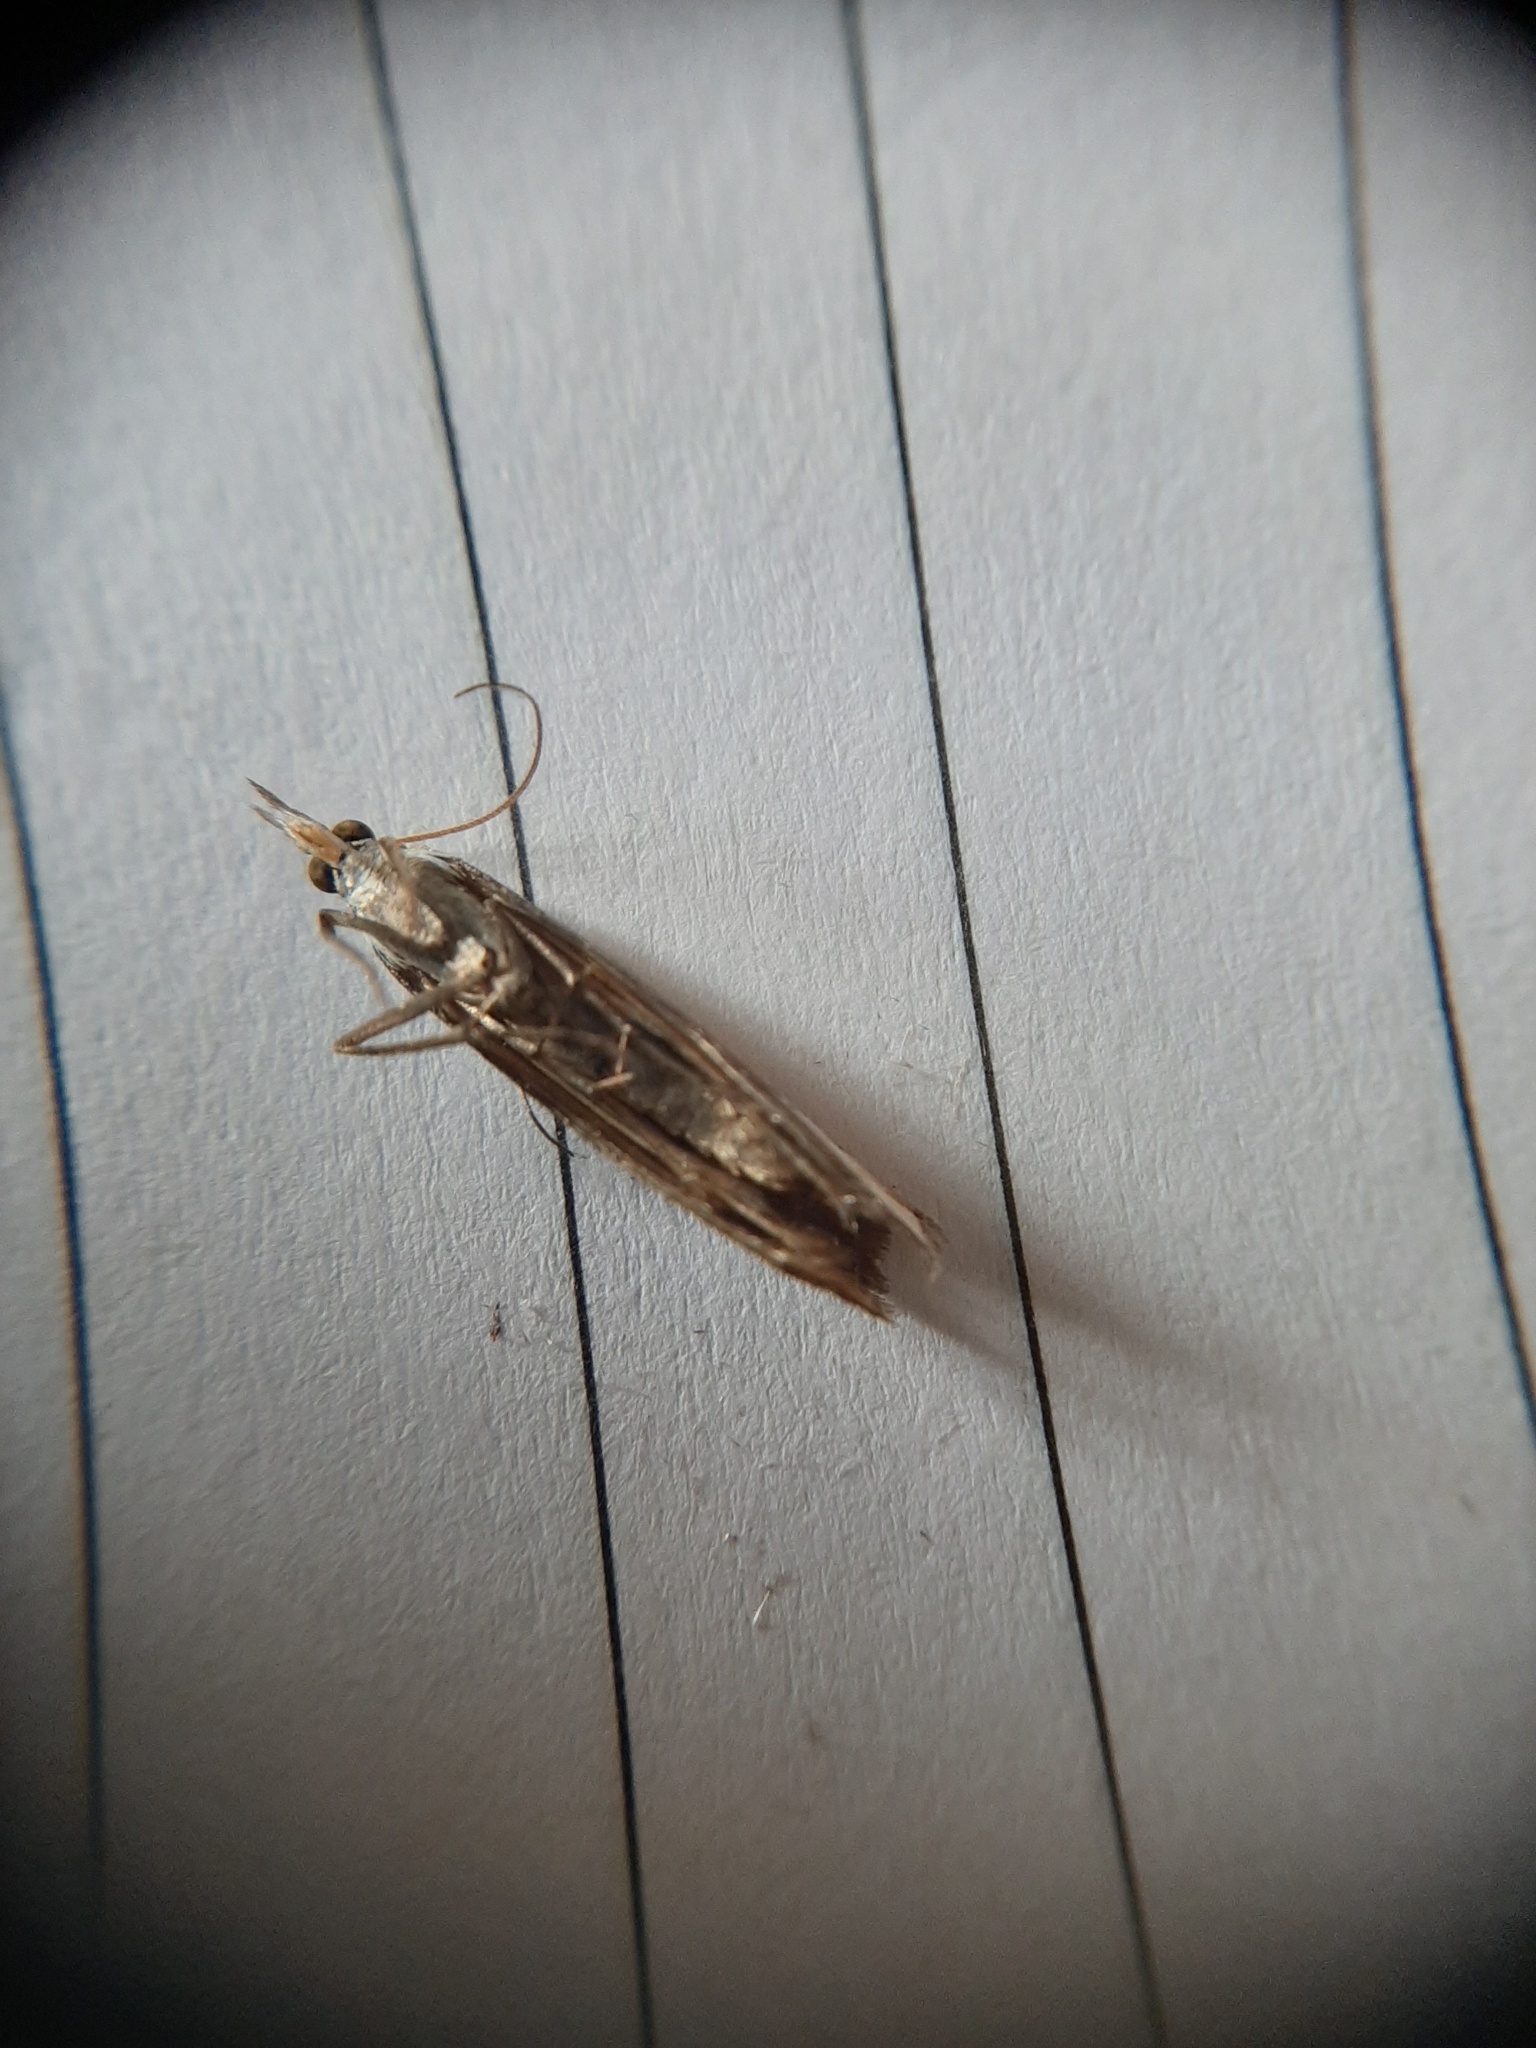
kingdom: Animalia
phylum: Arthropoda
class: Insecta
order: Lepidoptera
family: Crambidae
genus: Orocrambus
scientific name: Orocrambus flexuosellus
